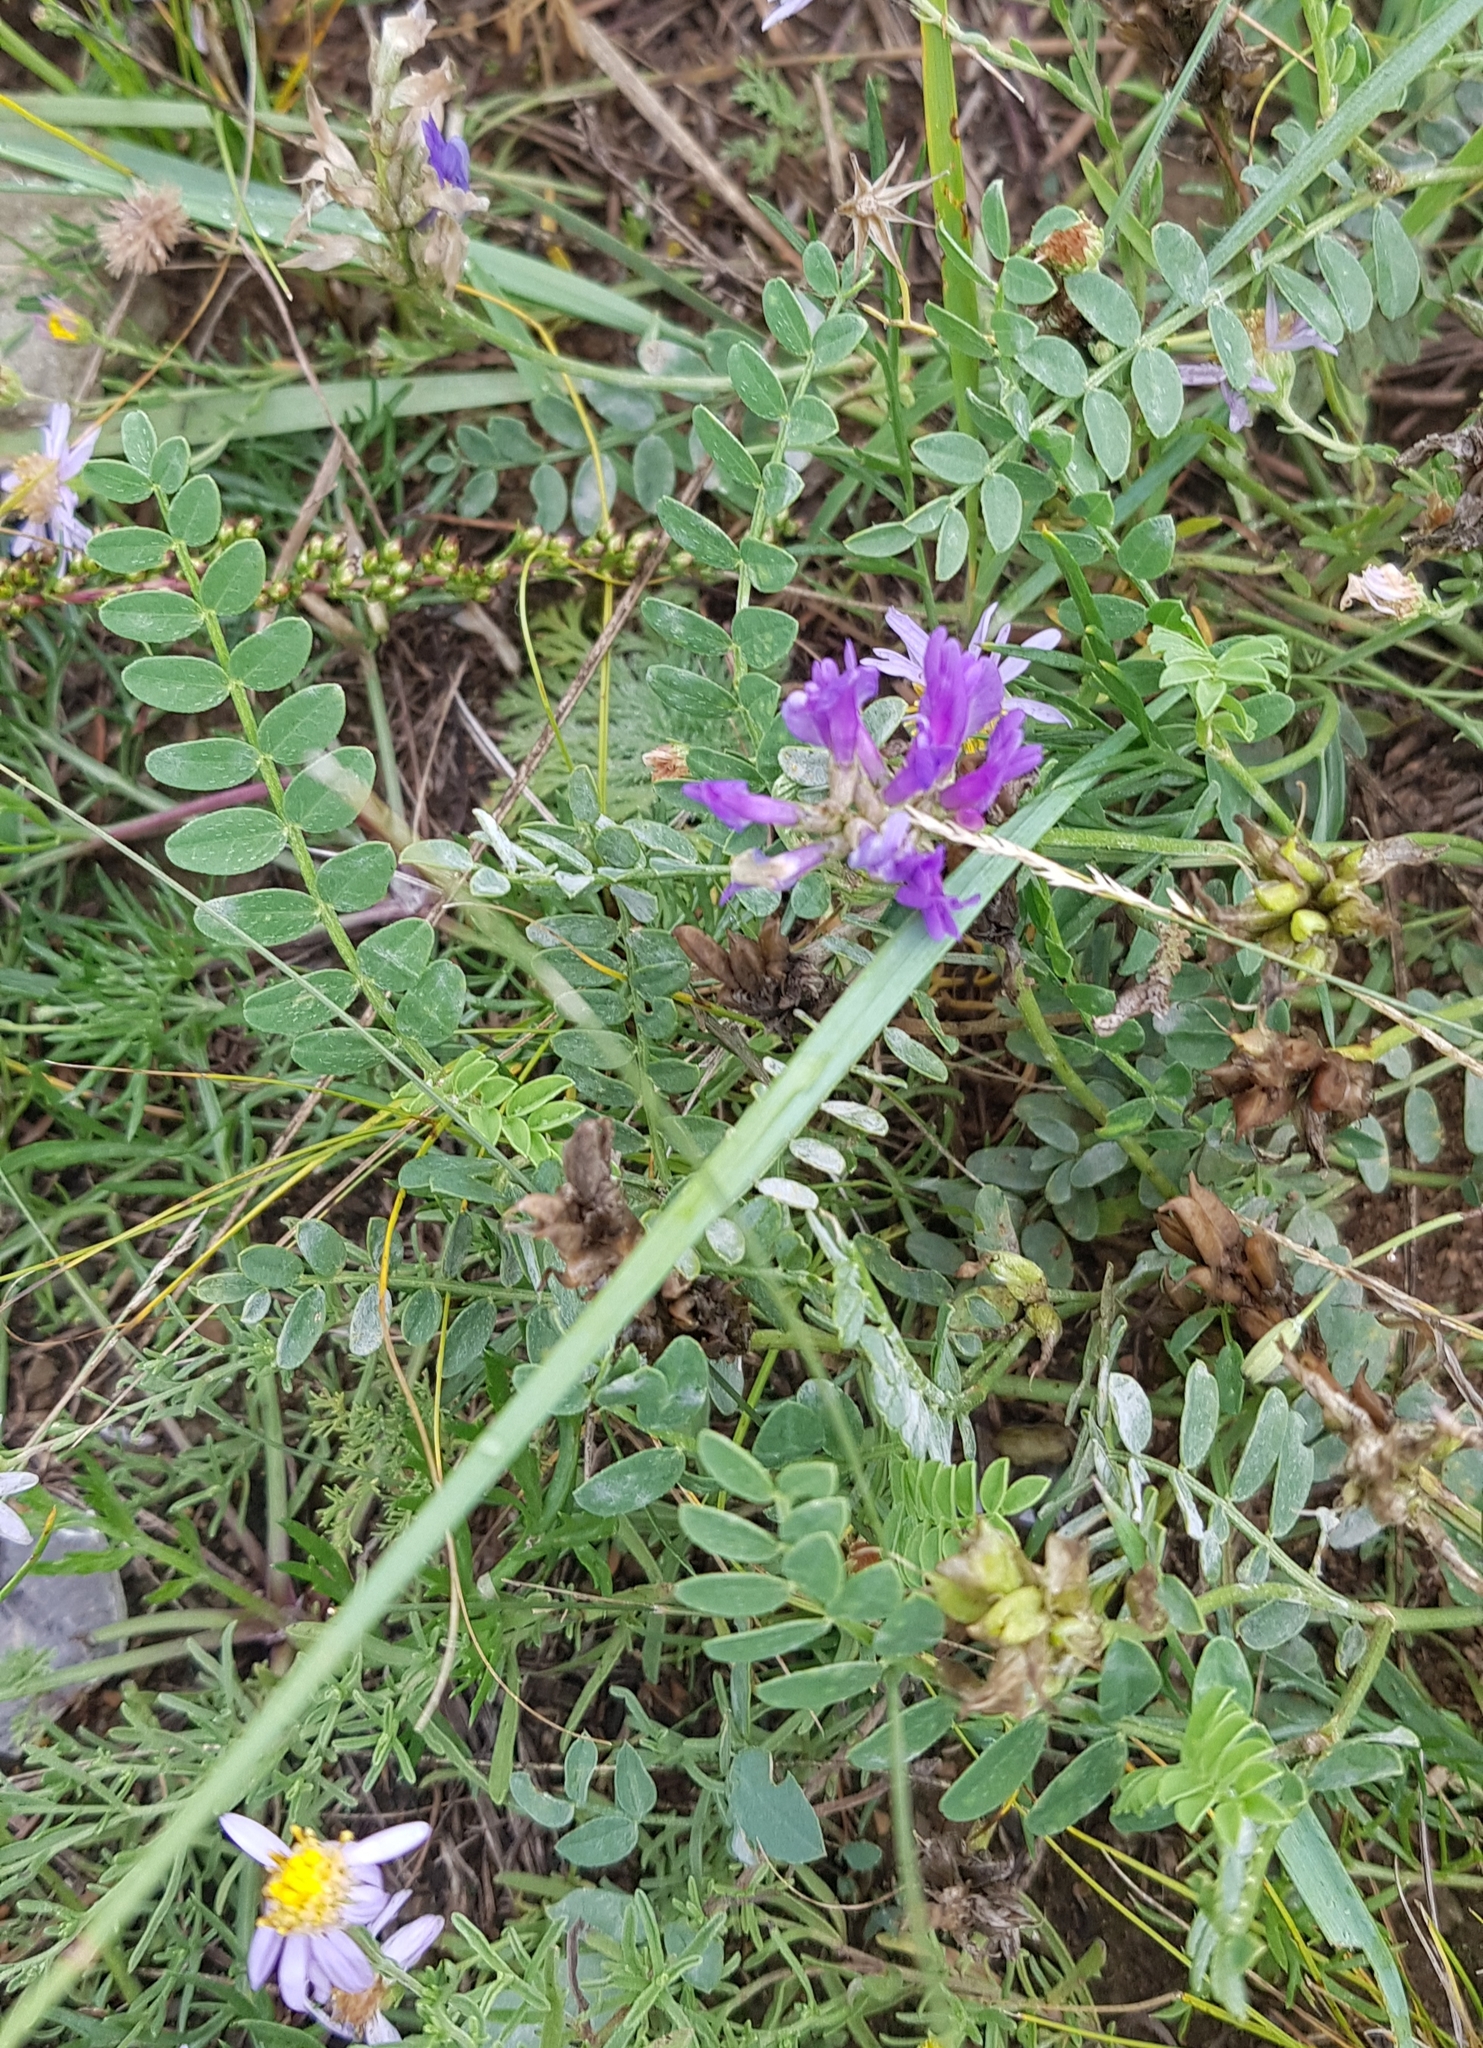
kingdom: Plantae
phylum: Tracheophyta
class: Magnoliopsida
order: Fabales
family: Fabaceae
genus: Astragalus
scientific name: Astragalus laxmannii
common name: Laxmann's milk-vetch
